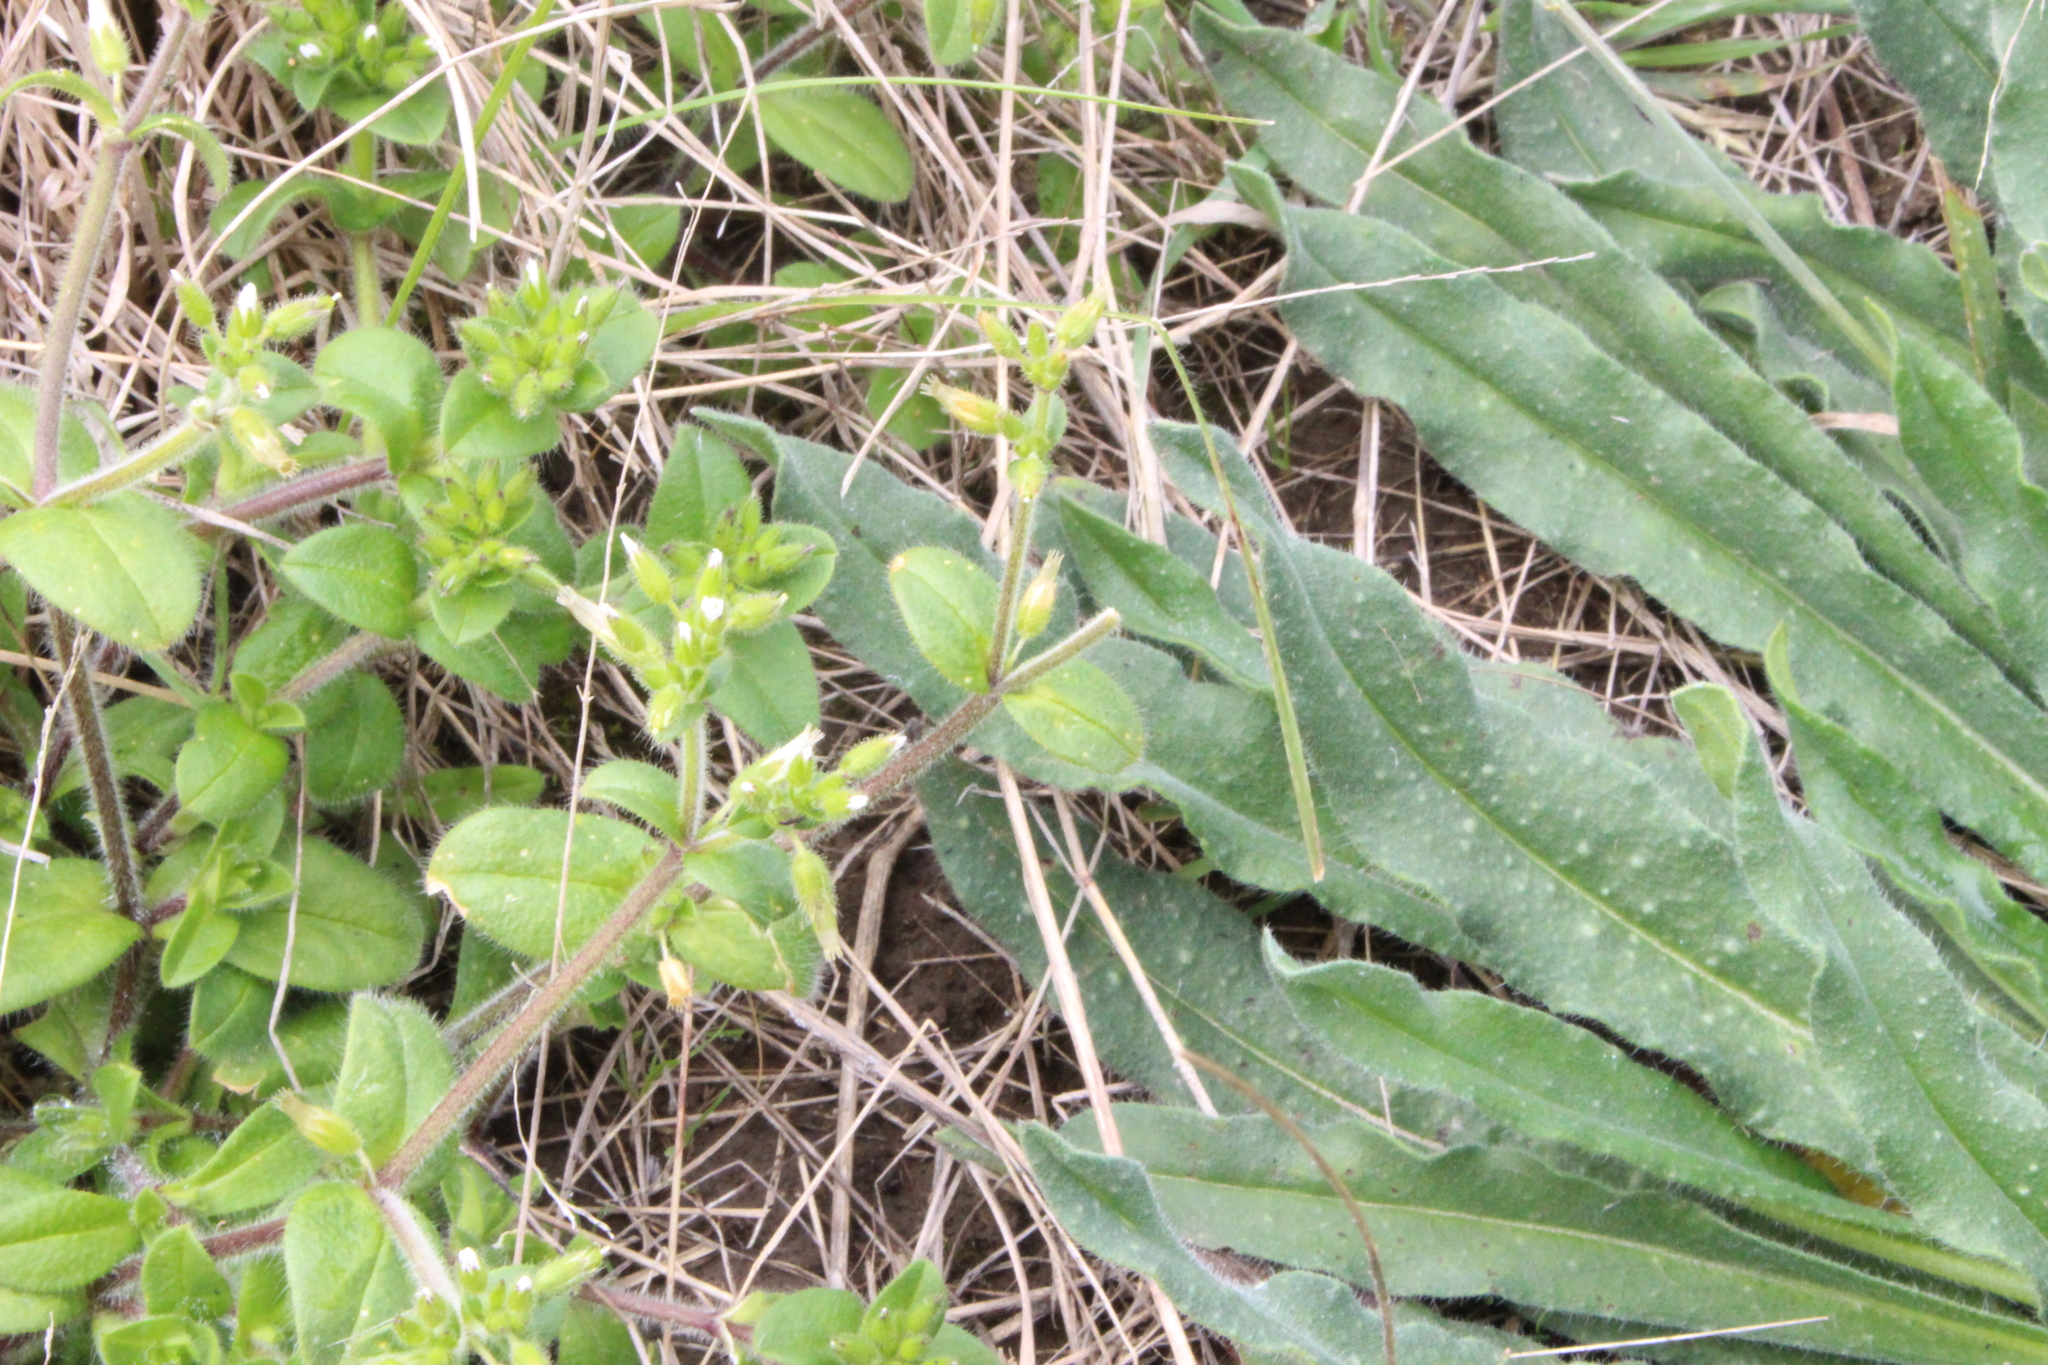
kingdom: Plantae
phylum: Tracheophyta
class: Magnoliopsida
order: Caryophyllales
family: Caryophyllaceae
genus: Cerastium
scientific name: Cerastium glomeratum
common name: Sticky chickweed
